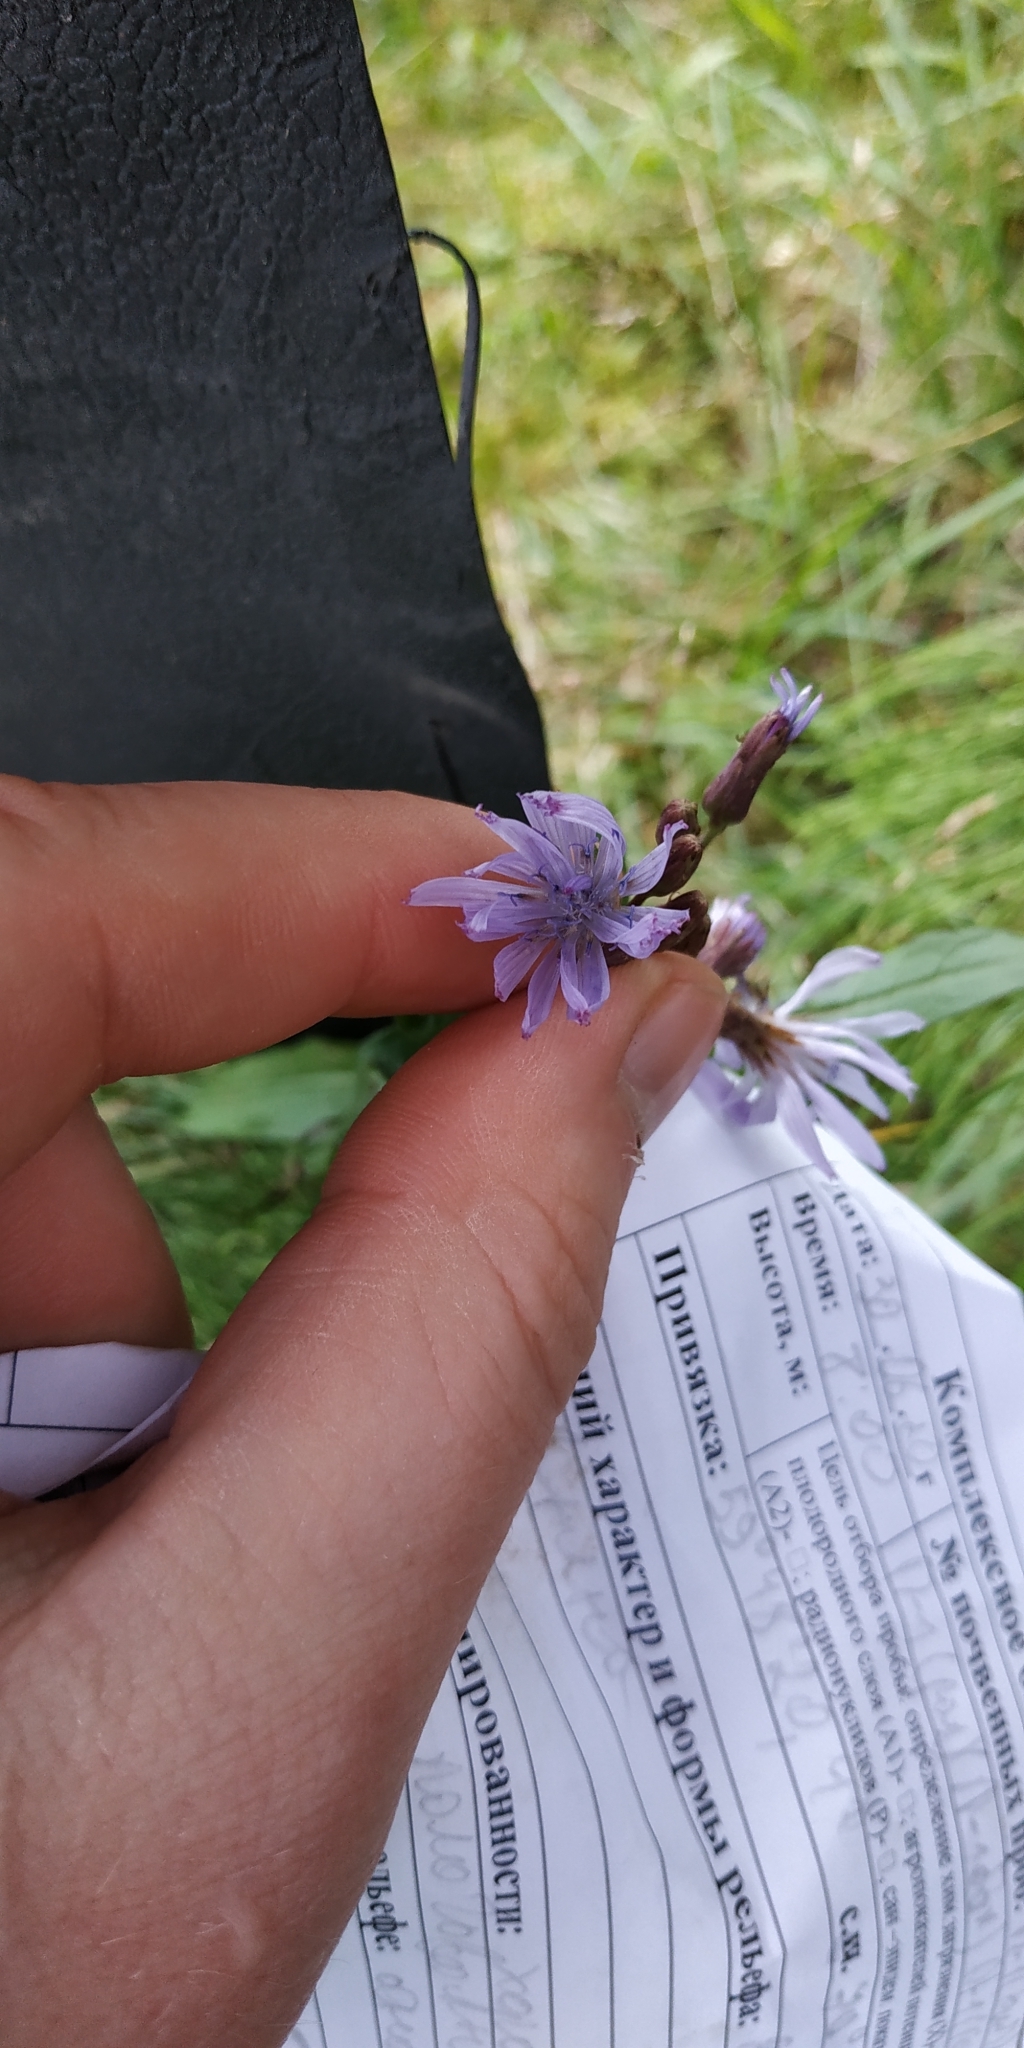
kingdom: Plantae
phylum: Tracheophyta
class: Magnoliopsida
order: Asterales
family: Asteraceae
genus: Lactuca
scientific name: Lactuca sibirica
